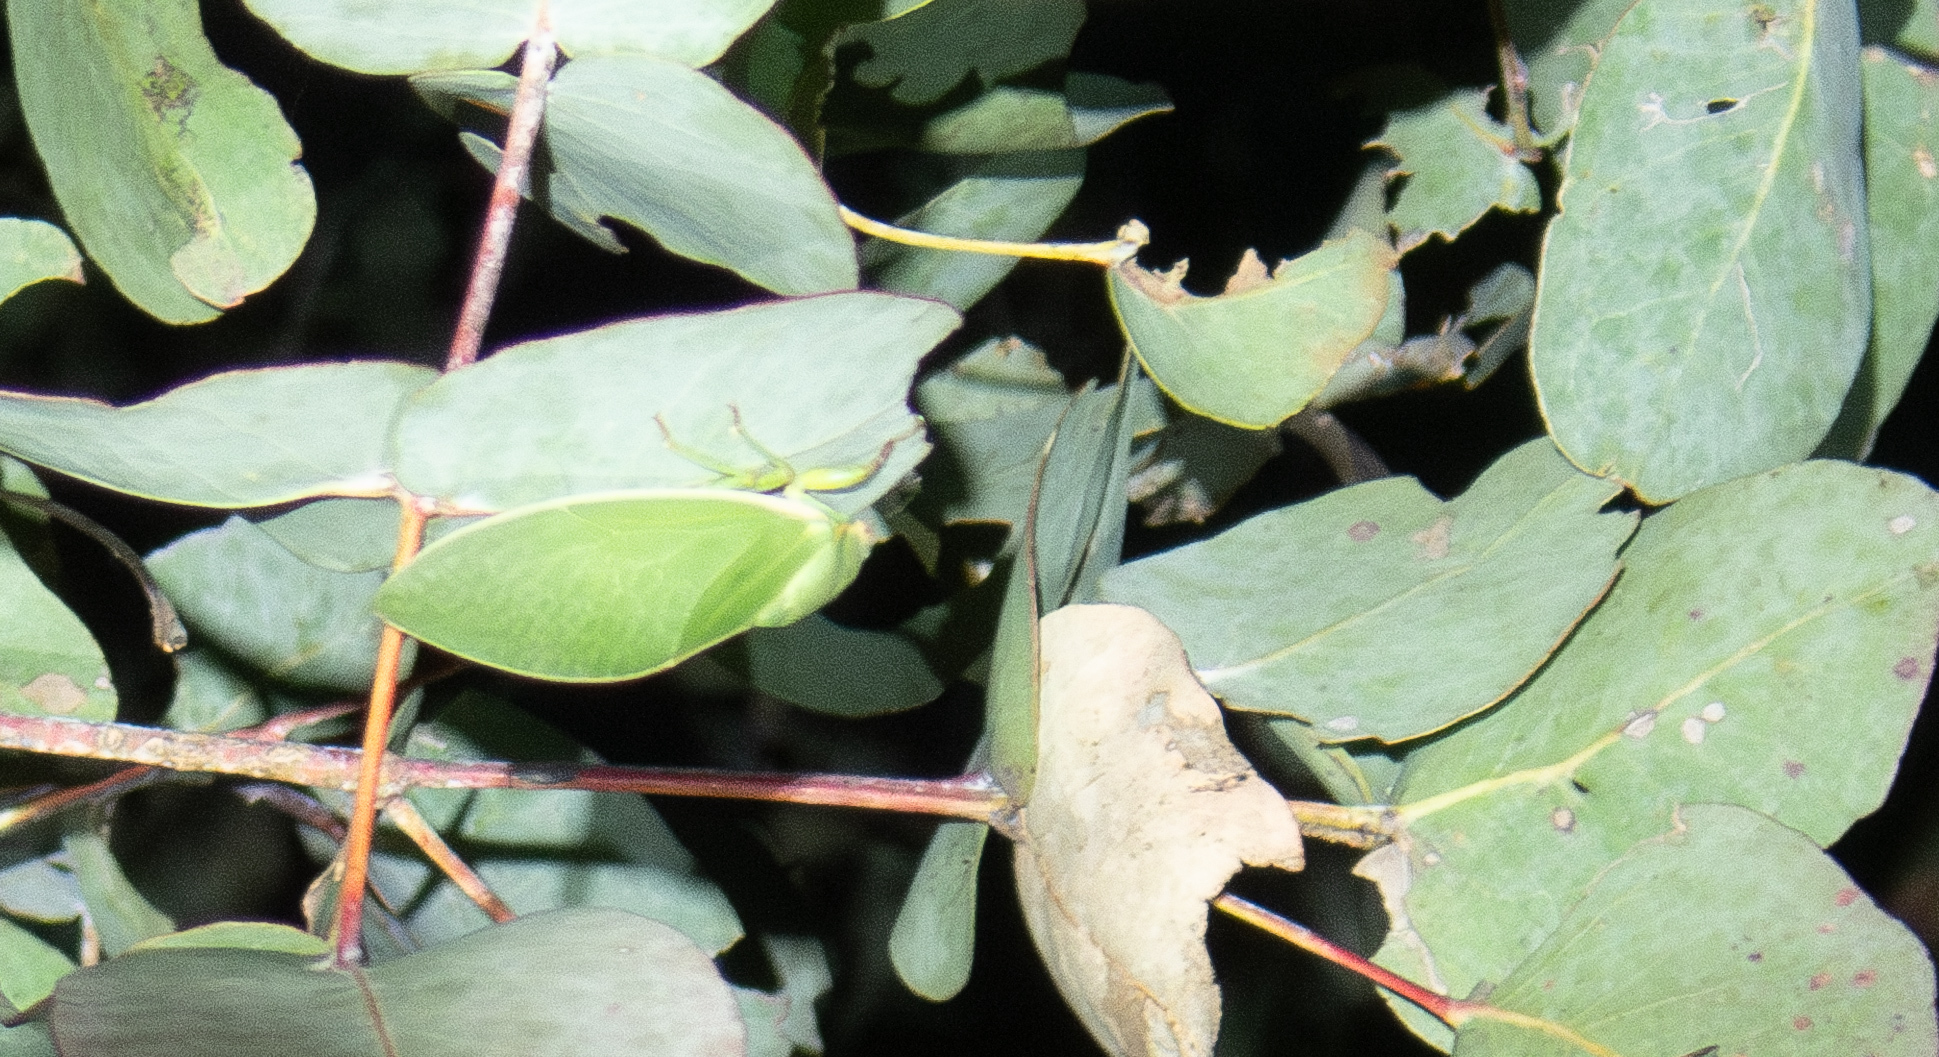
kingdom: Animalia
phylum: Arthropoda
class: Insecta
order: Hemiptera
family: Cicadidae
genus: Cystosoma
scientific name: Cystosoma saundersii
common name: Bladder cicada
